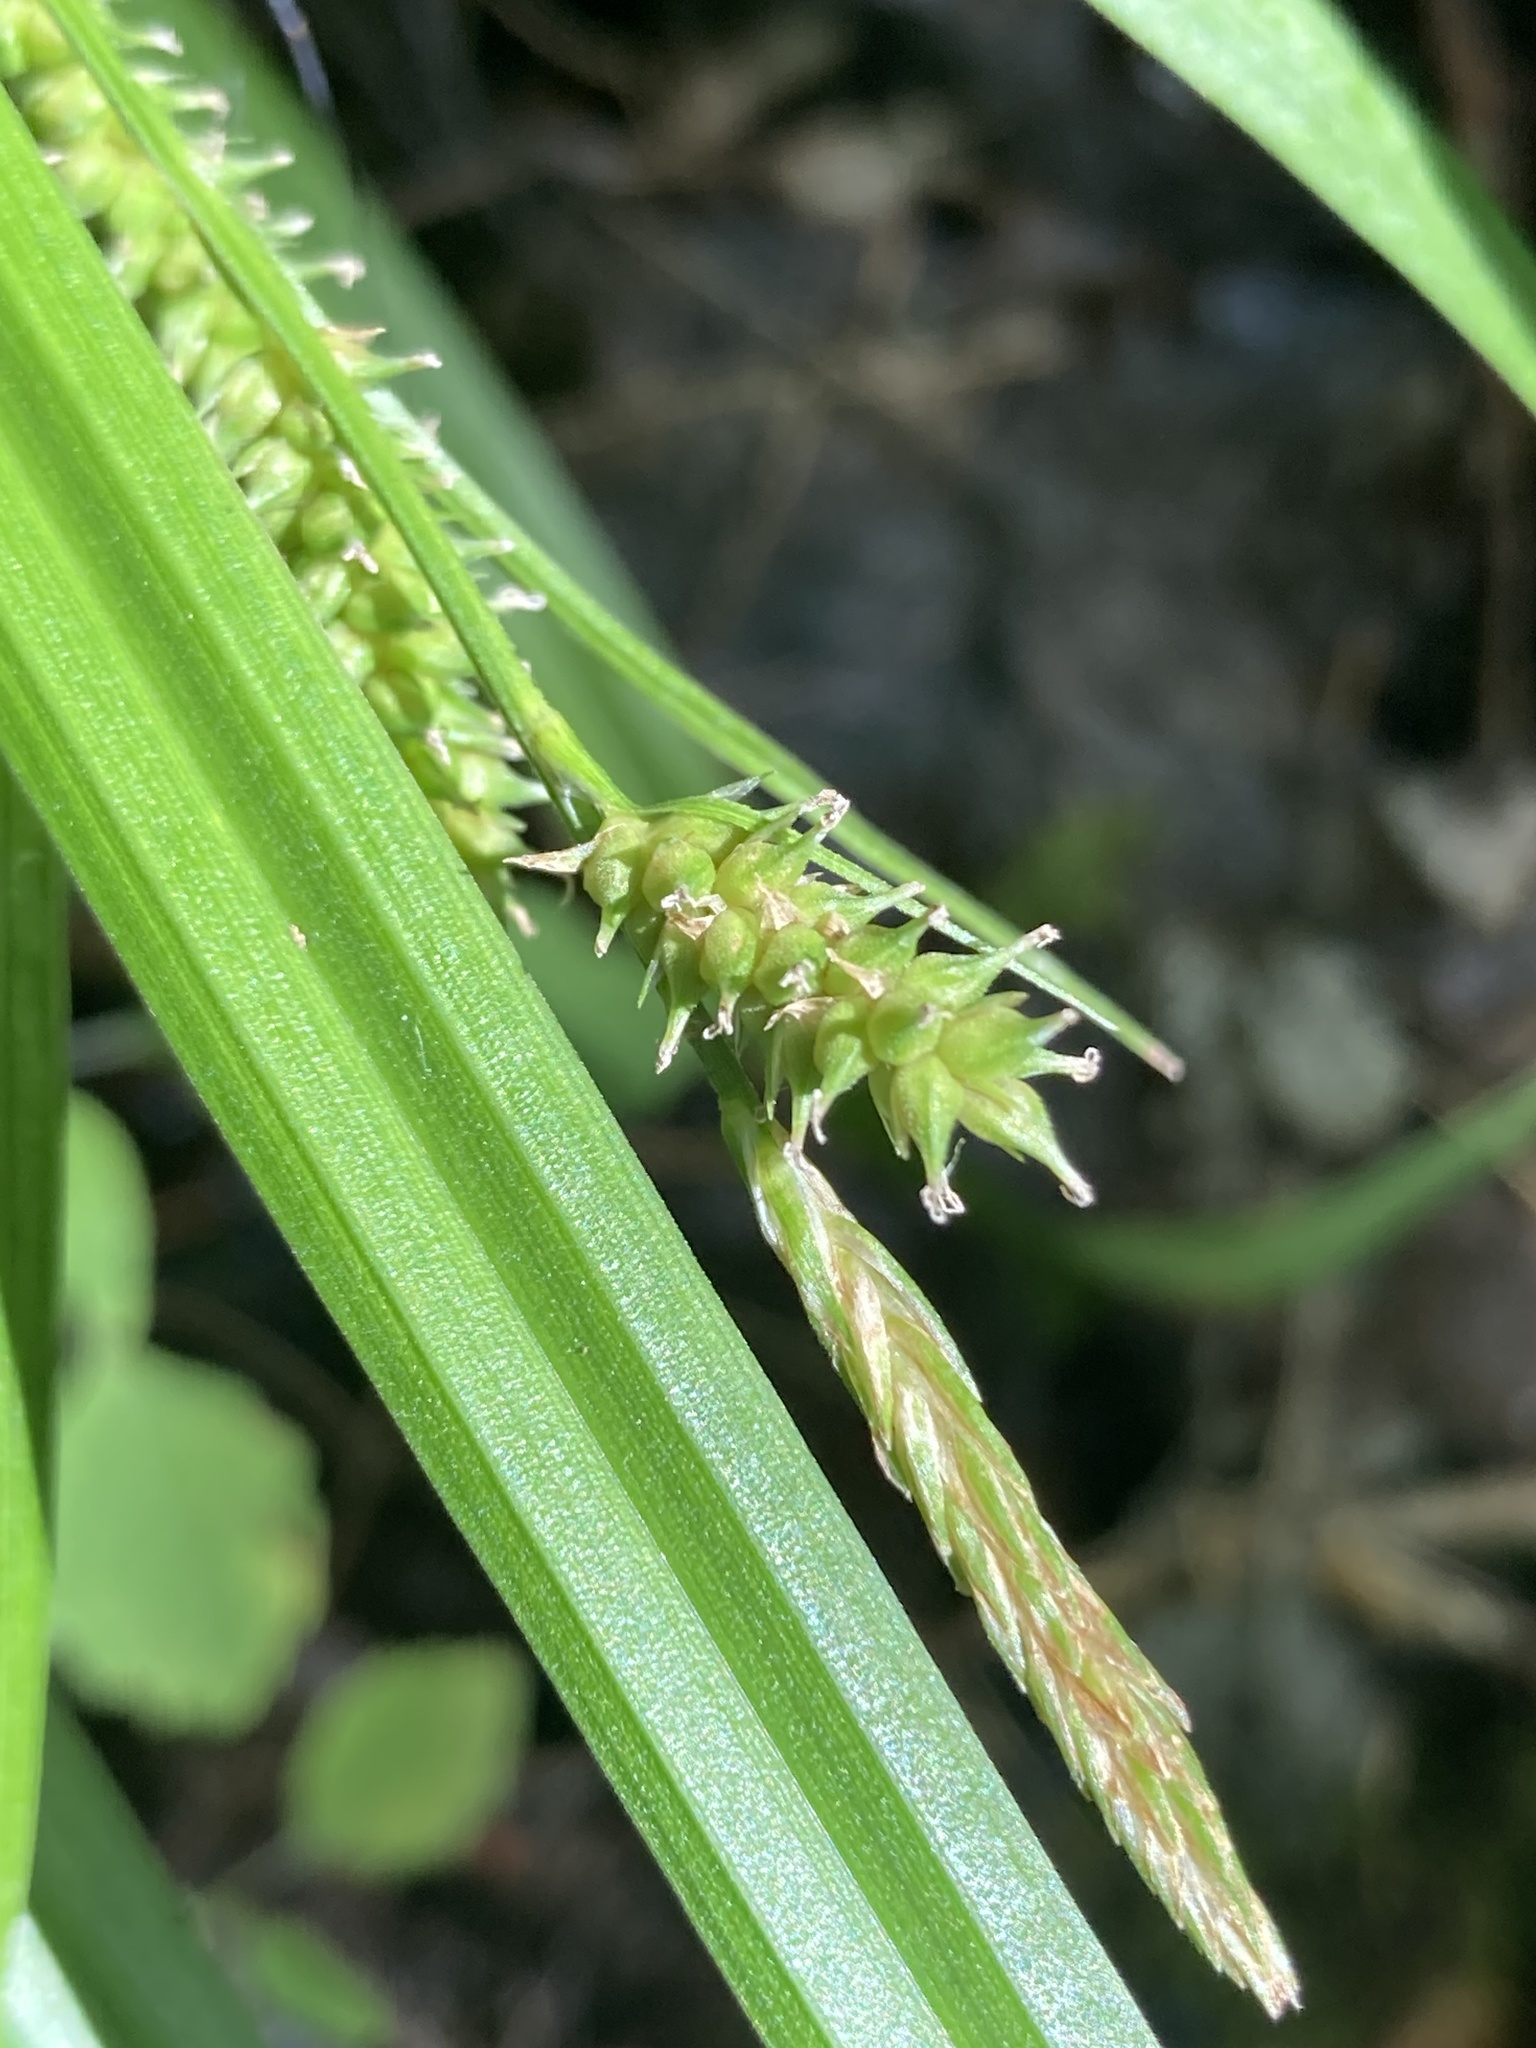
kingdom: Plantae
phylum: Tracheophyta
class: Liliopsida
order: Poales
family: Cyperaceae
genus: Carex
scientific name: Carex scabrata
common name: Eastern rough sedge
